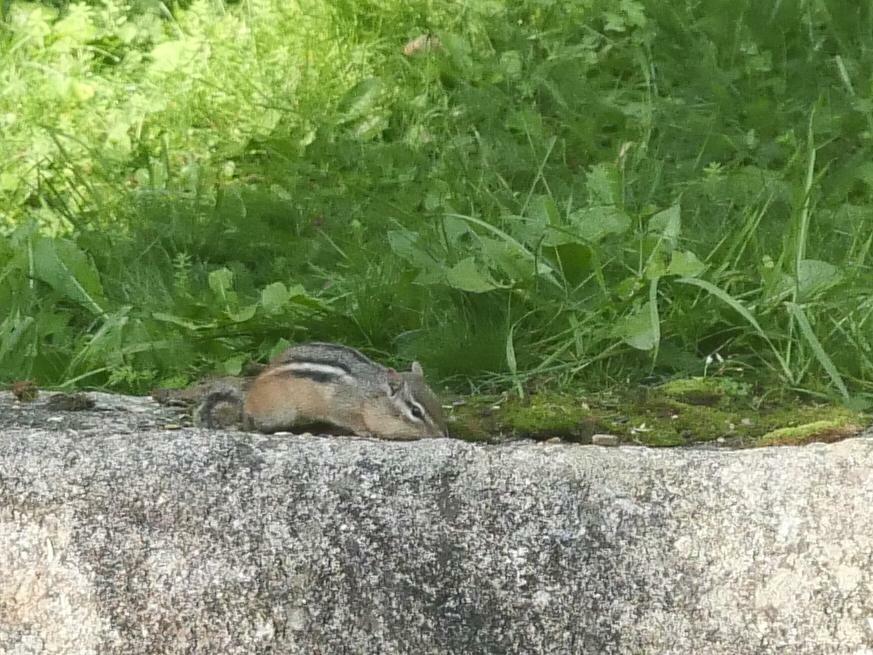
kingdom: Animalia
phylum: Chordata
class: Mammalia
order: Rodentia
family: Sciuridae
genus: Tamias
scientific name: Tamias striatus
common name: Eastern chipmunk
